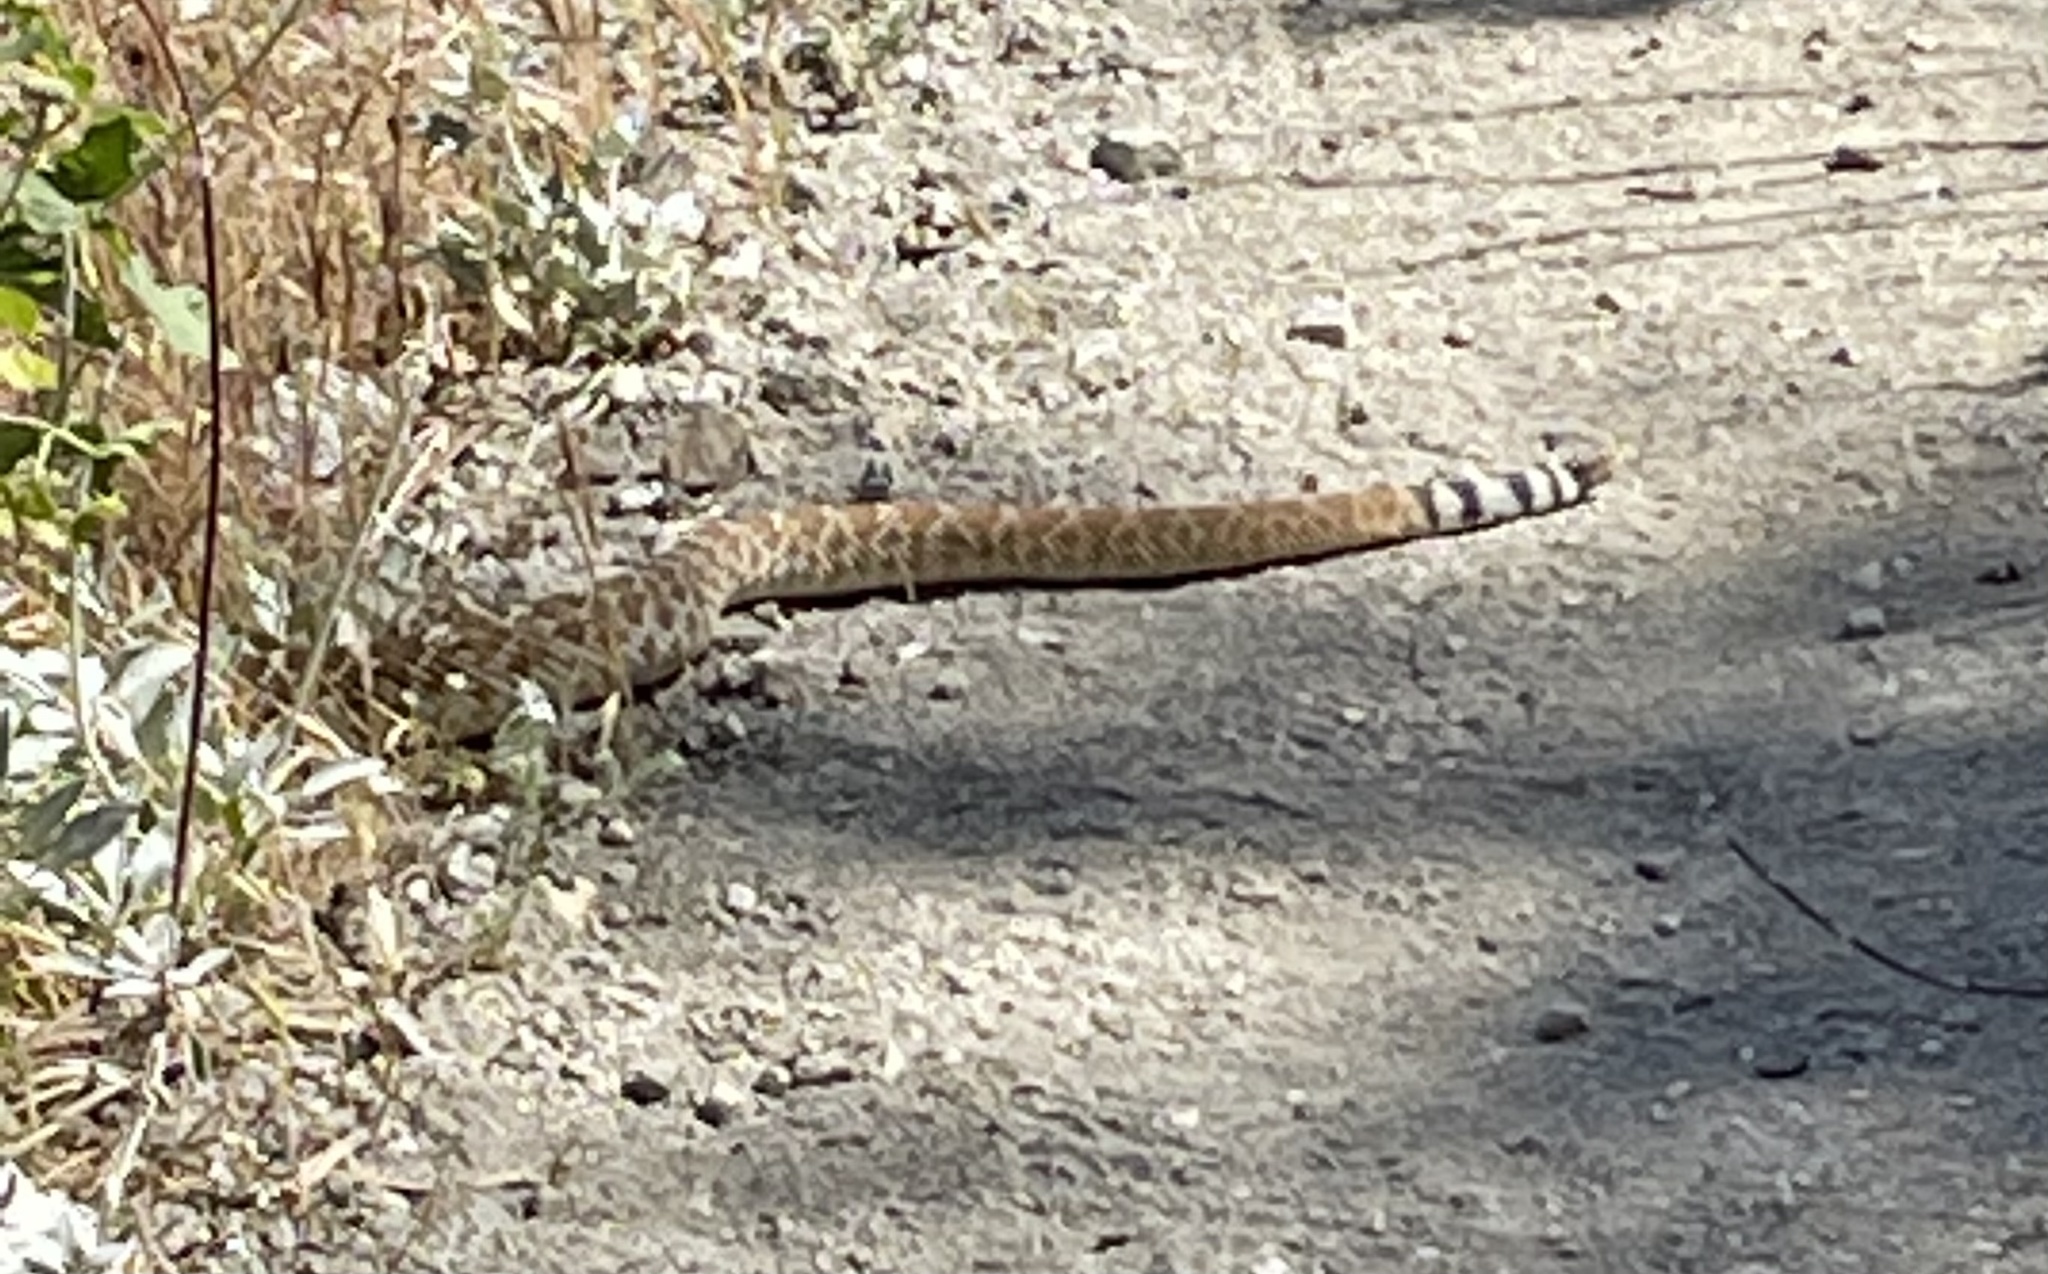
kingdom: Animalia
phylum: Chordata
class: Squamata
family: Viperidae
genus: Crotalus
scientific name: Crotalus ruber
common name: Red diamond rattlesnake
